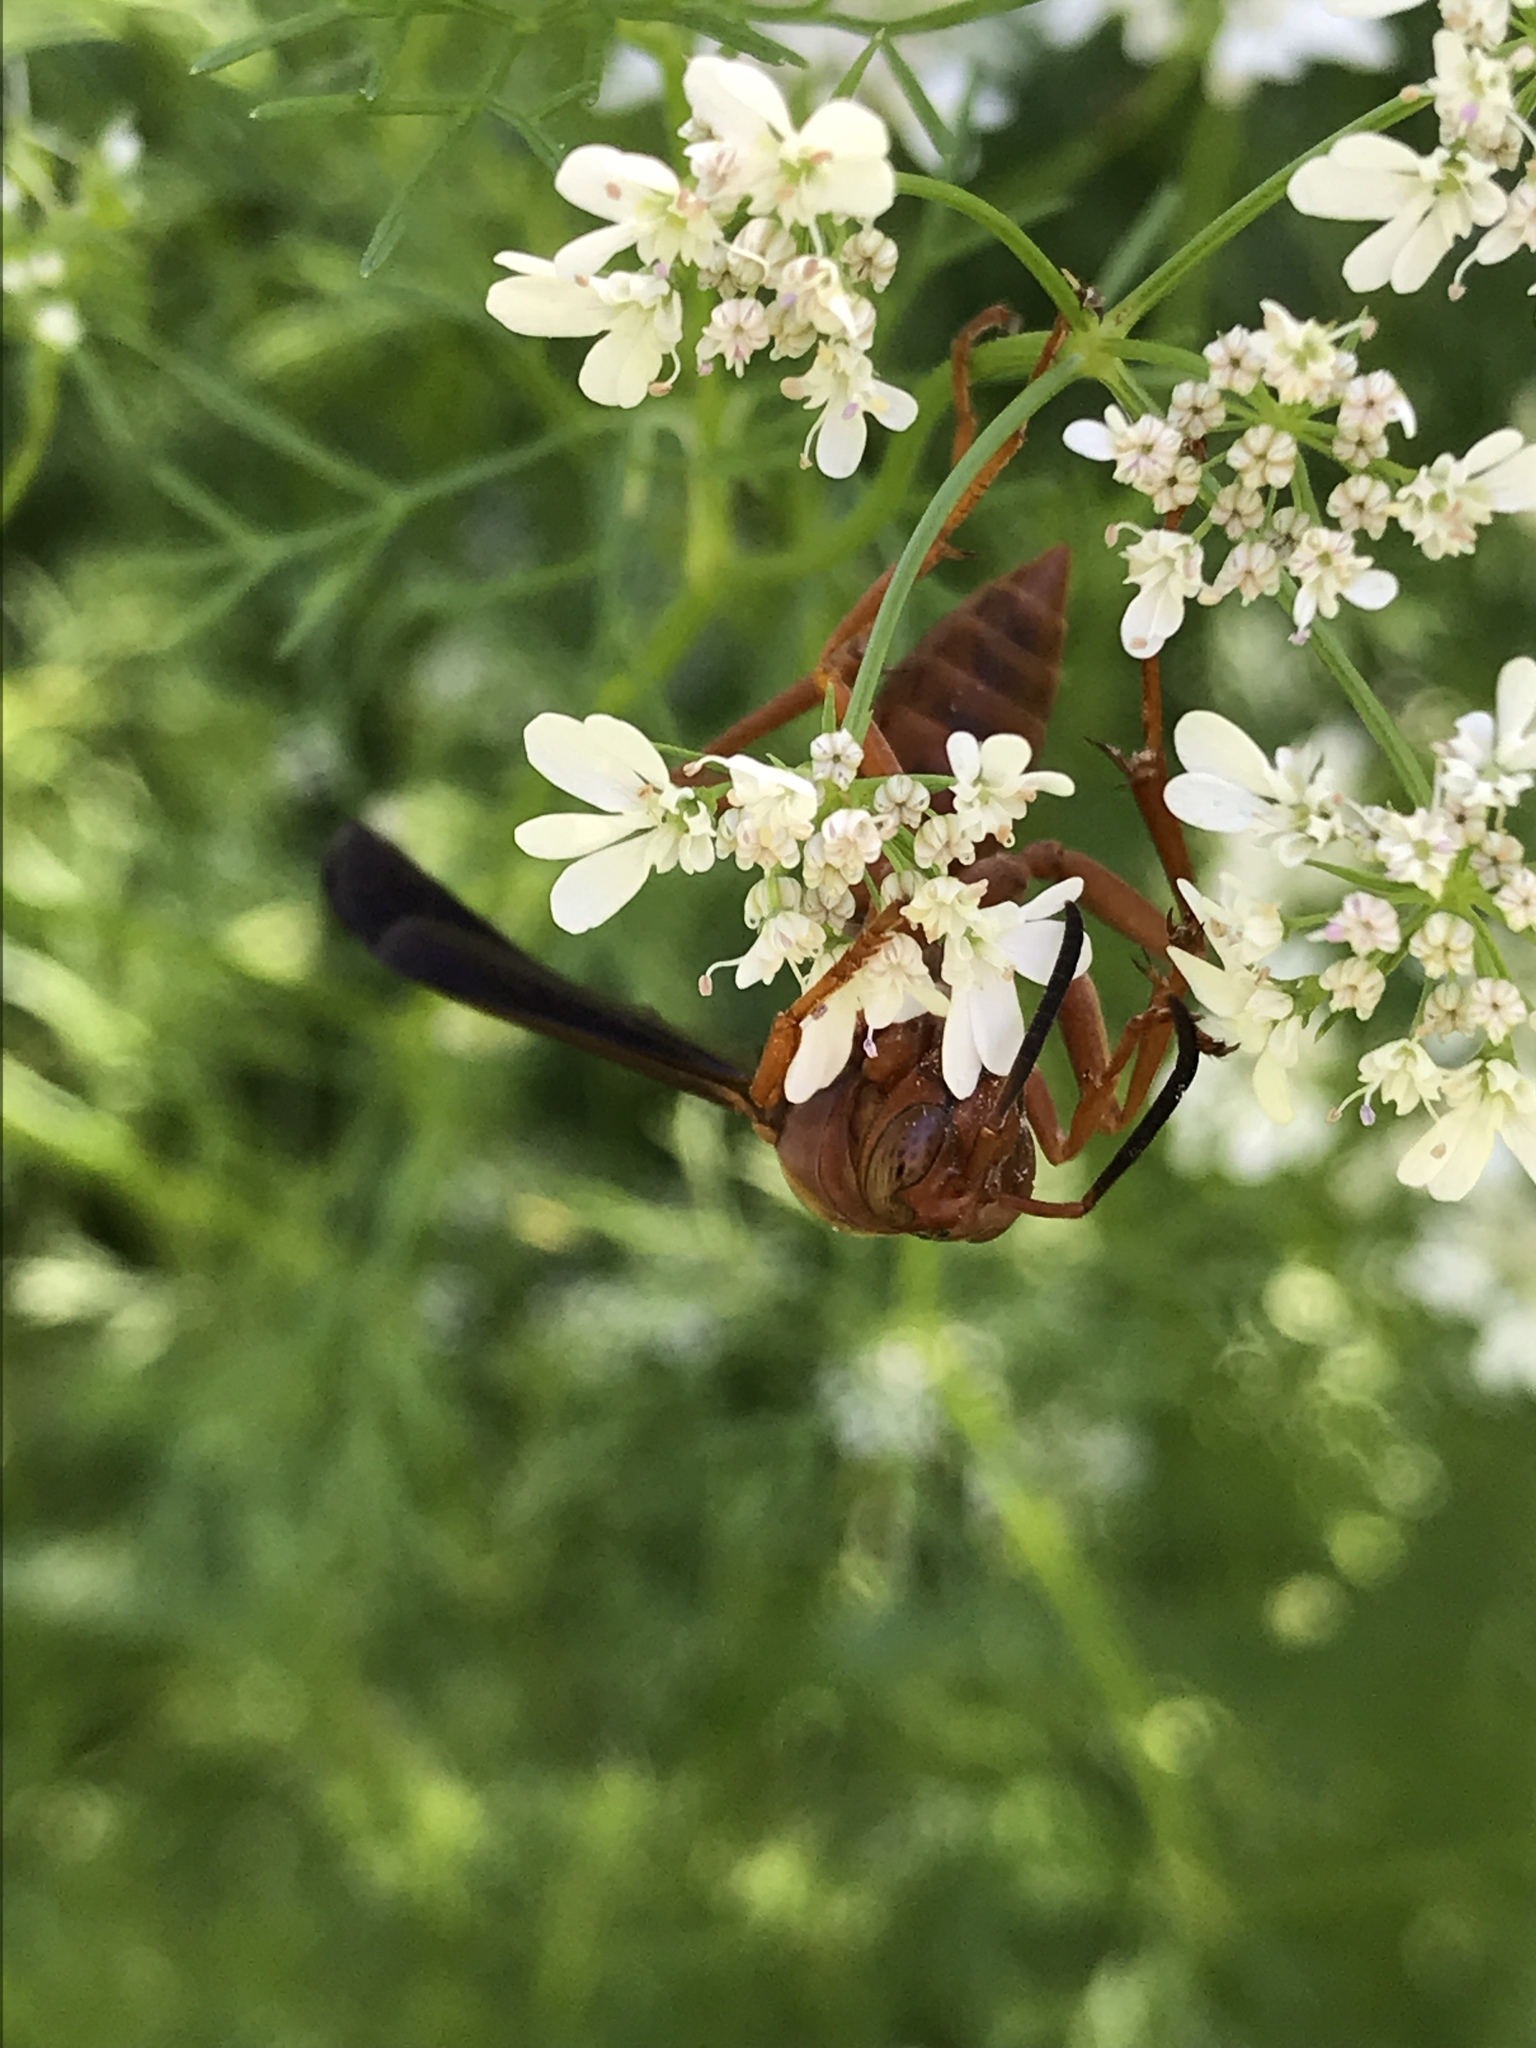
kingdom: Animalia
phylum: Arthropoda
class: Insecta
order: Hymenoptera
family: Vespidae
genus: Fuscopolistes
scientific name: Fuscopolistes
